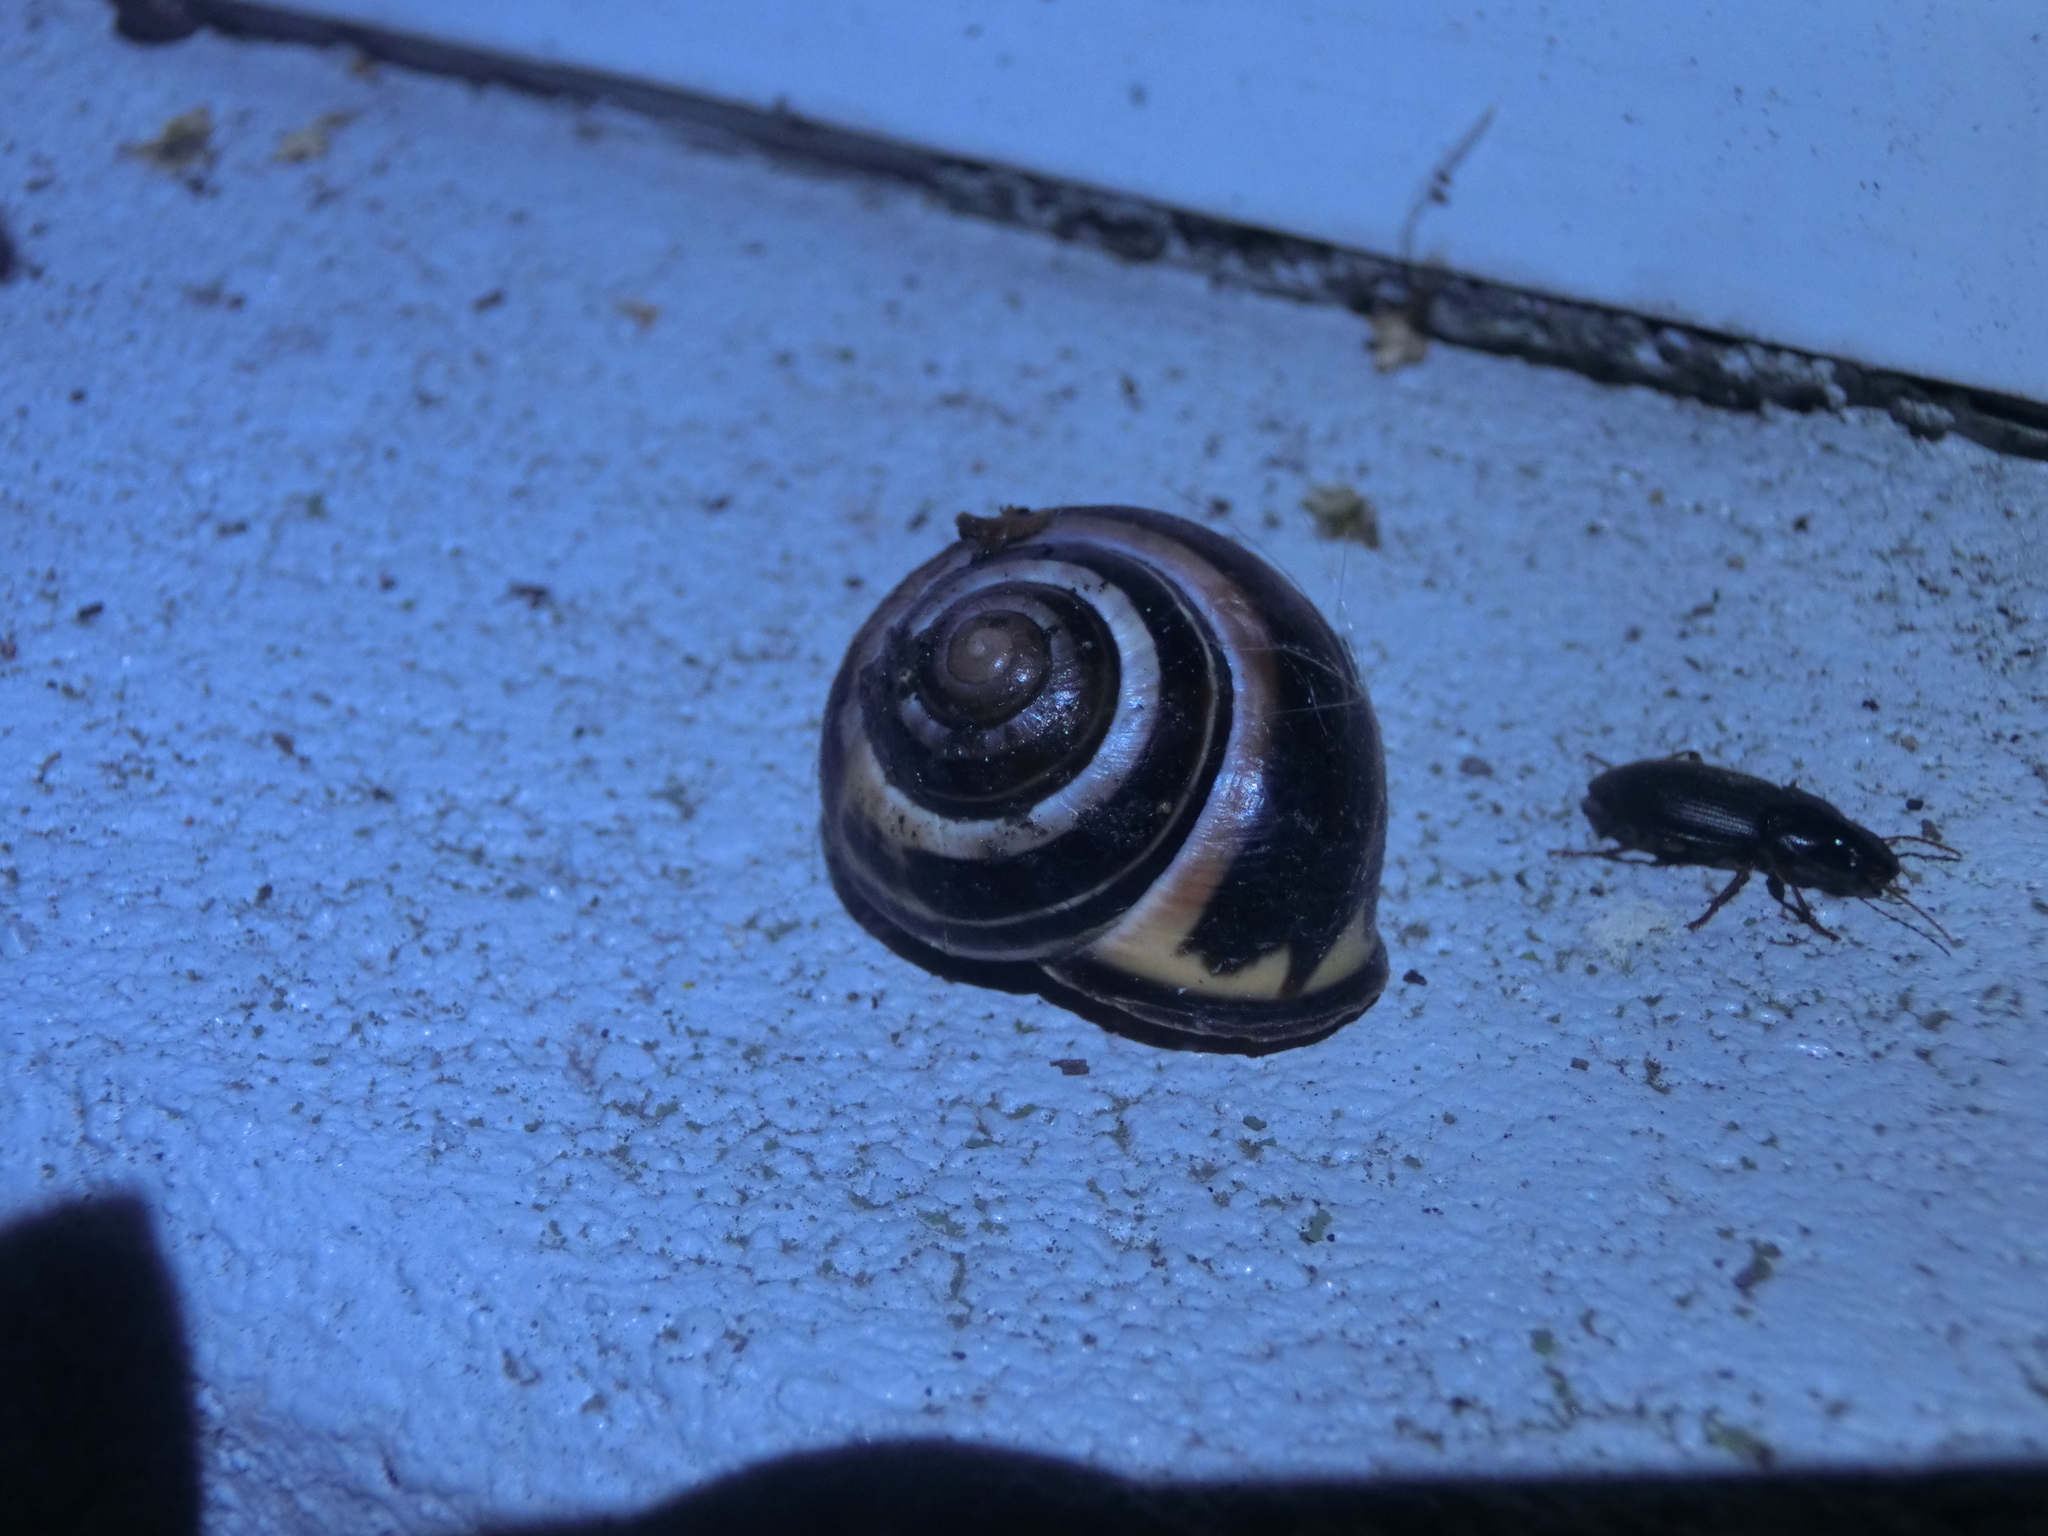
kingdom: Animalia
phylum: Mollusca
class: Gastropoda
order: Stylommatophora
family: Helicidae
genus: Cepaea
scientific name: Cepaea nemoralis
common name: Grovesnail
